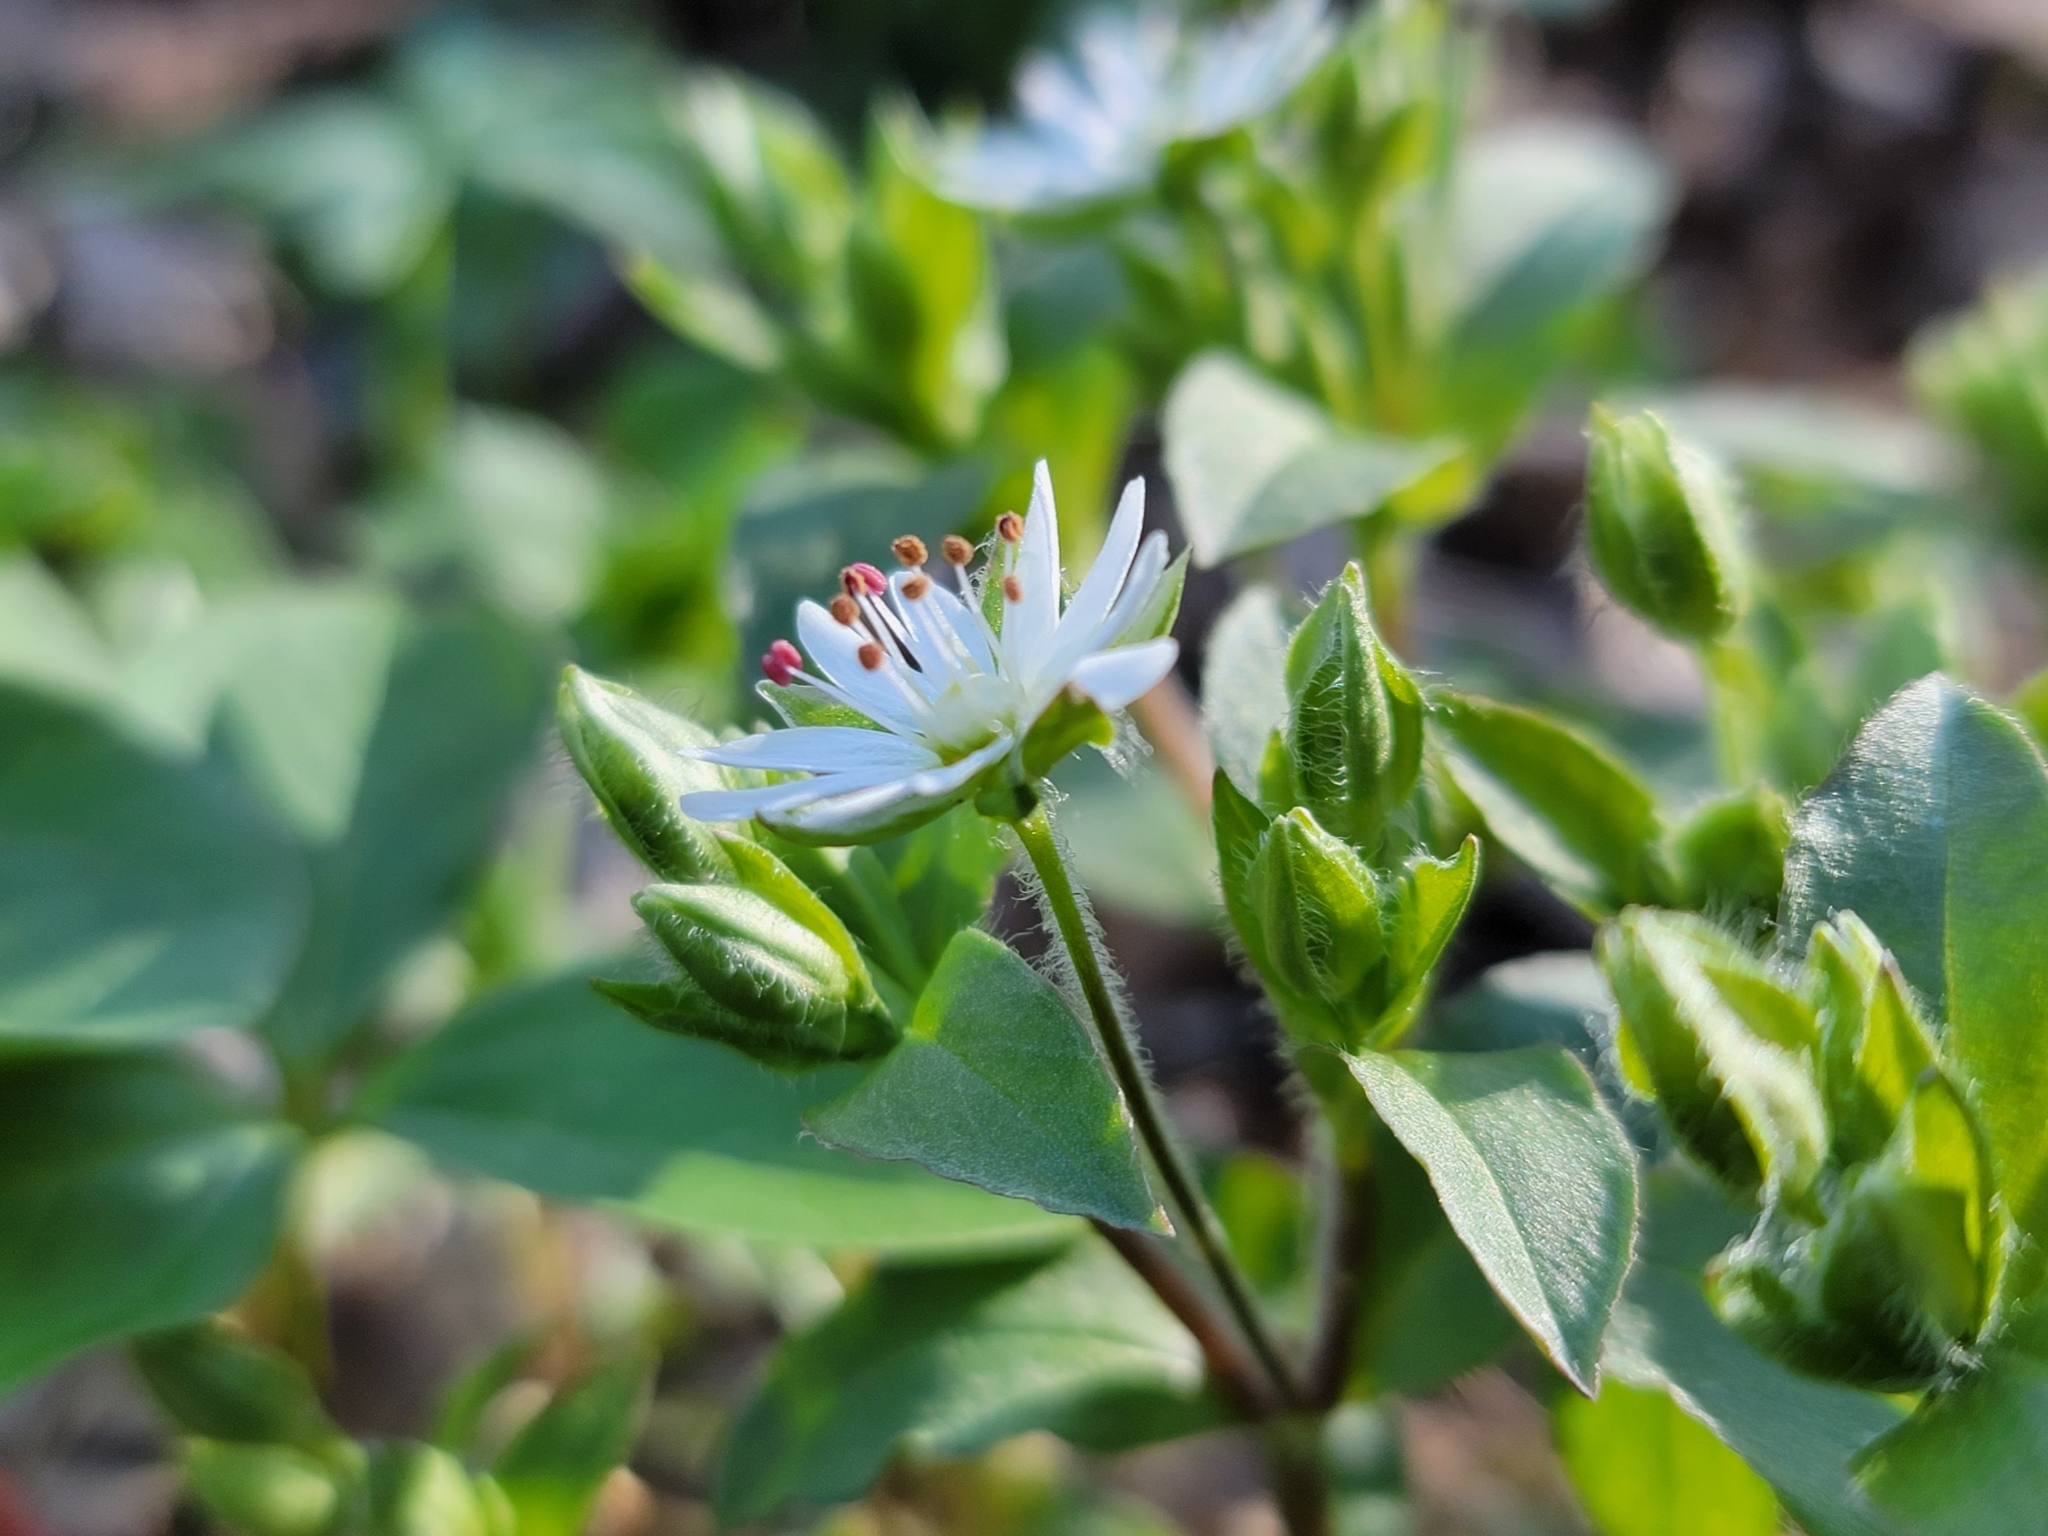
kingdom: Plantae
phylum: Tracheophyta
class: Magnoliopsida
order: Caryophyllales
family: Caryophyllaceae
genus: Stellaria
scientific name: Stellaria pubera
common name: Star chickweed
